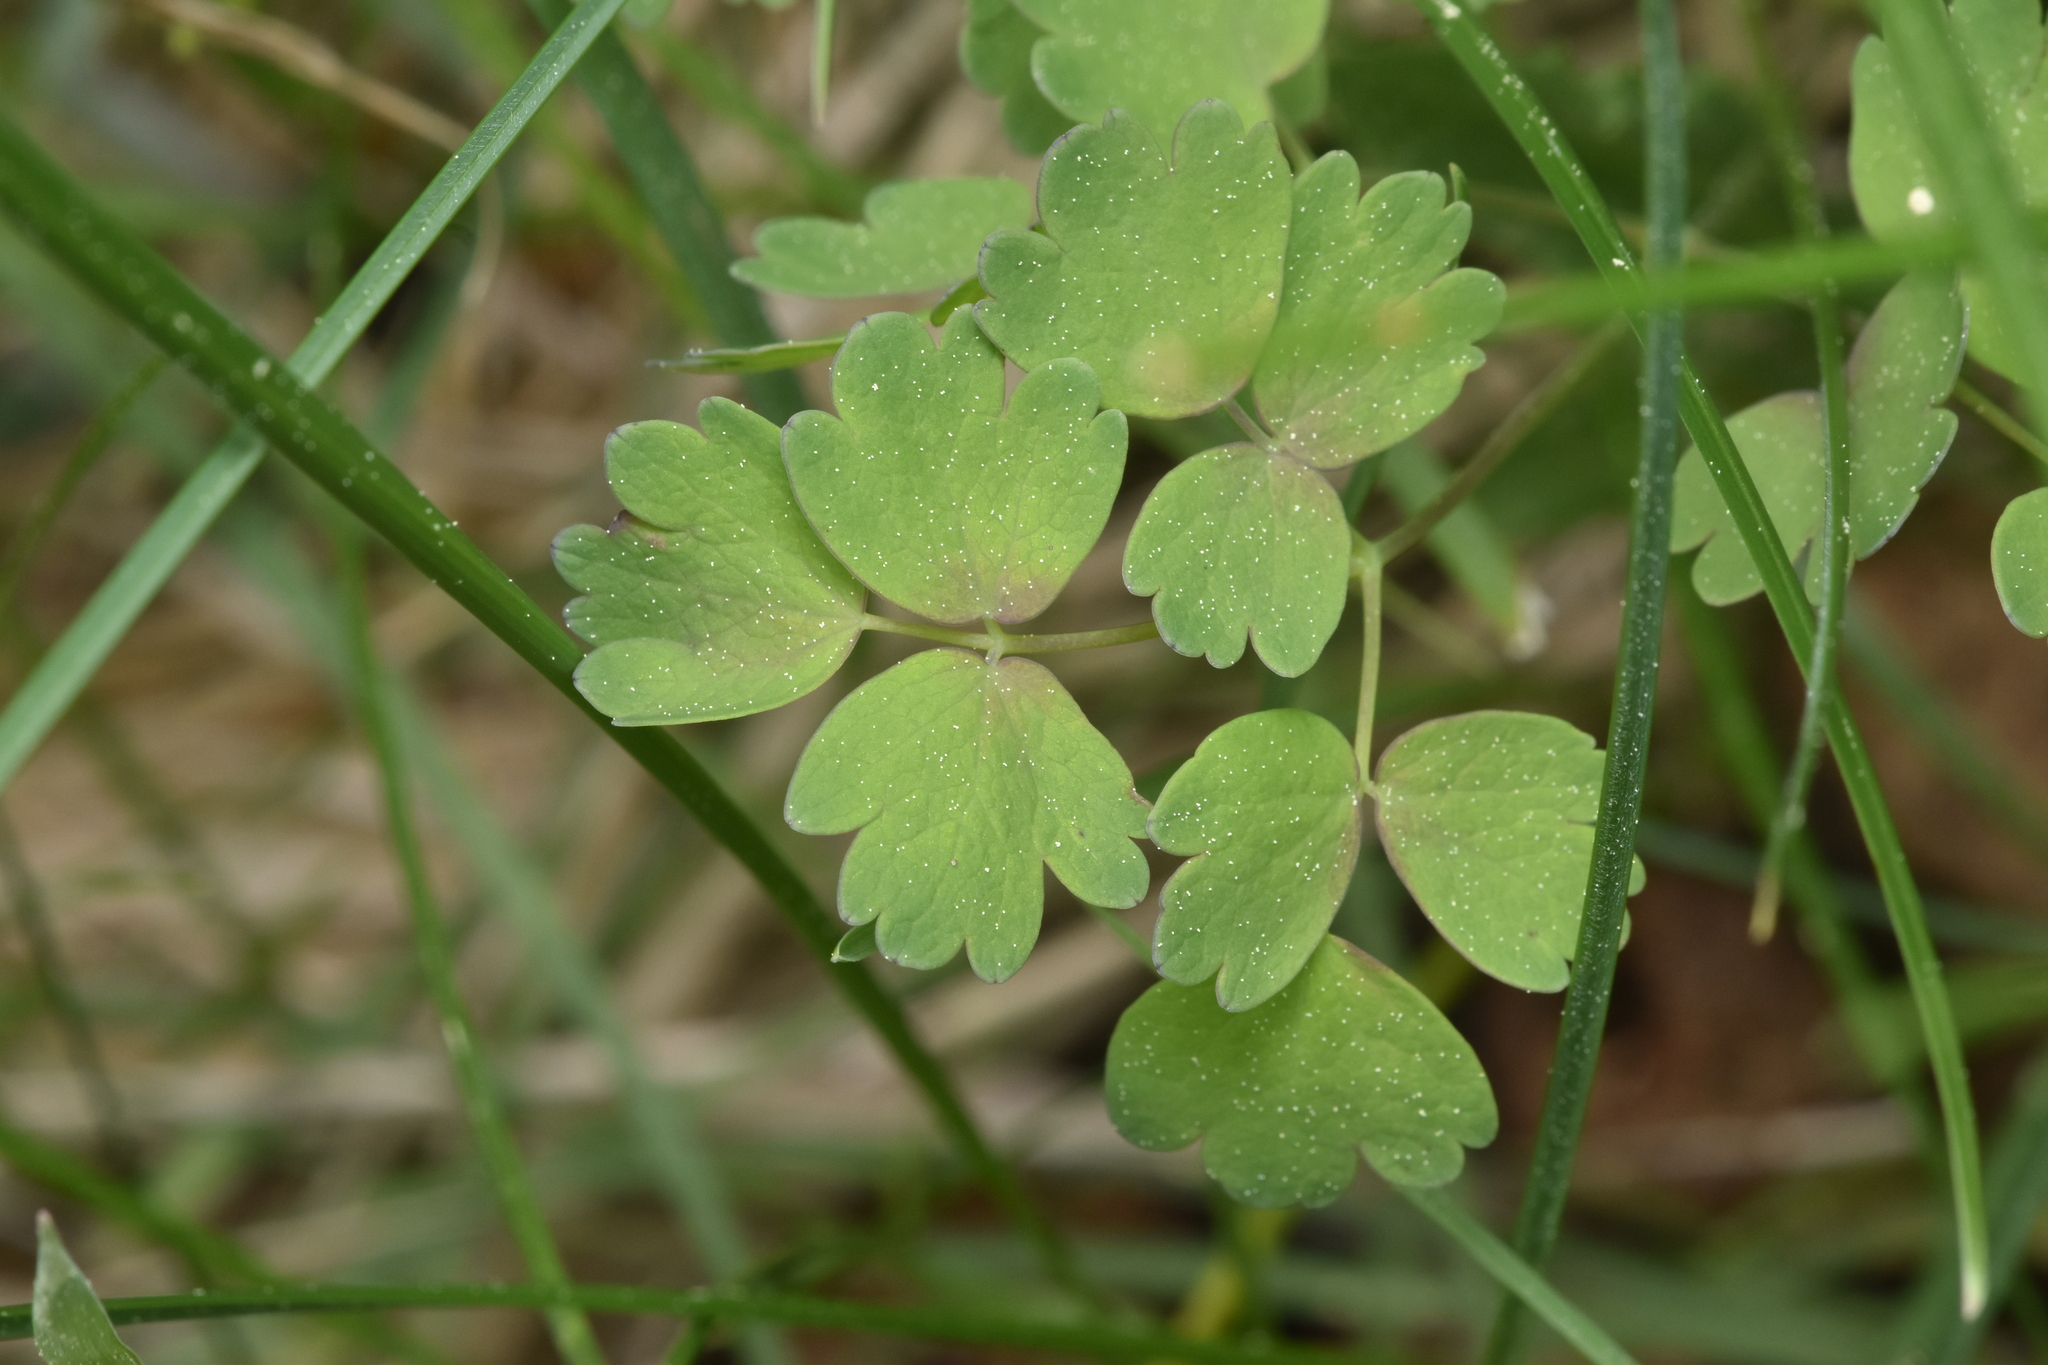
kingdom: Plantae
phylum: Tracheophyta
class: Magnoliopsida
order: Ranunculales
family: Ranunculaceae
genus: Thalictrum
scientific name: Thalictrum occidentale
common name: Western meadow-rue
